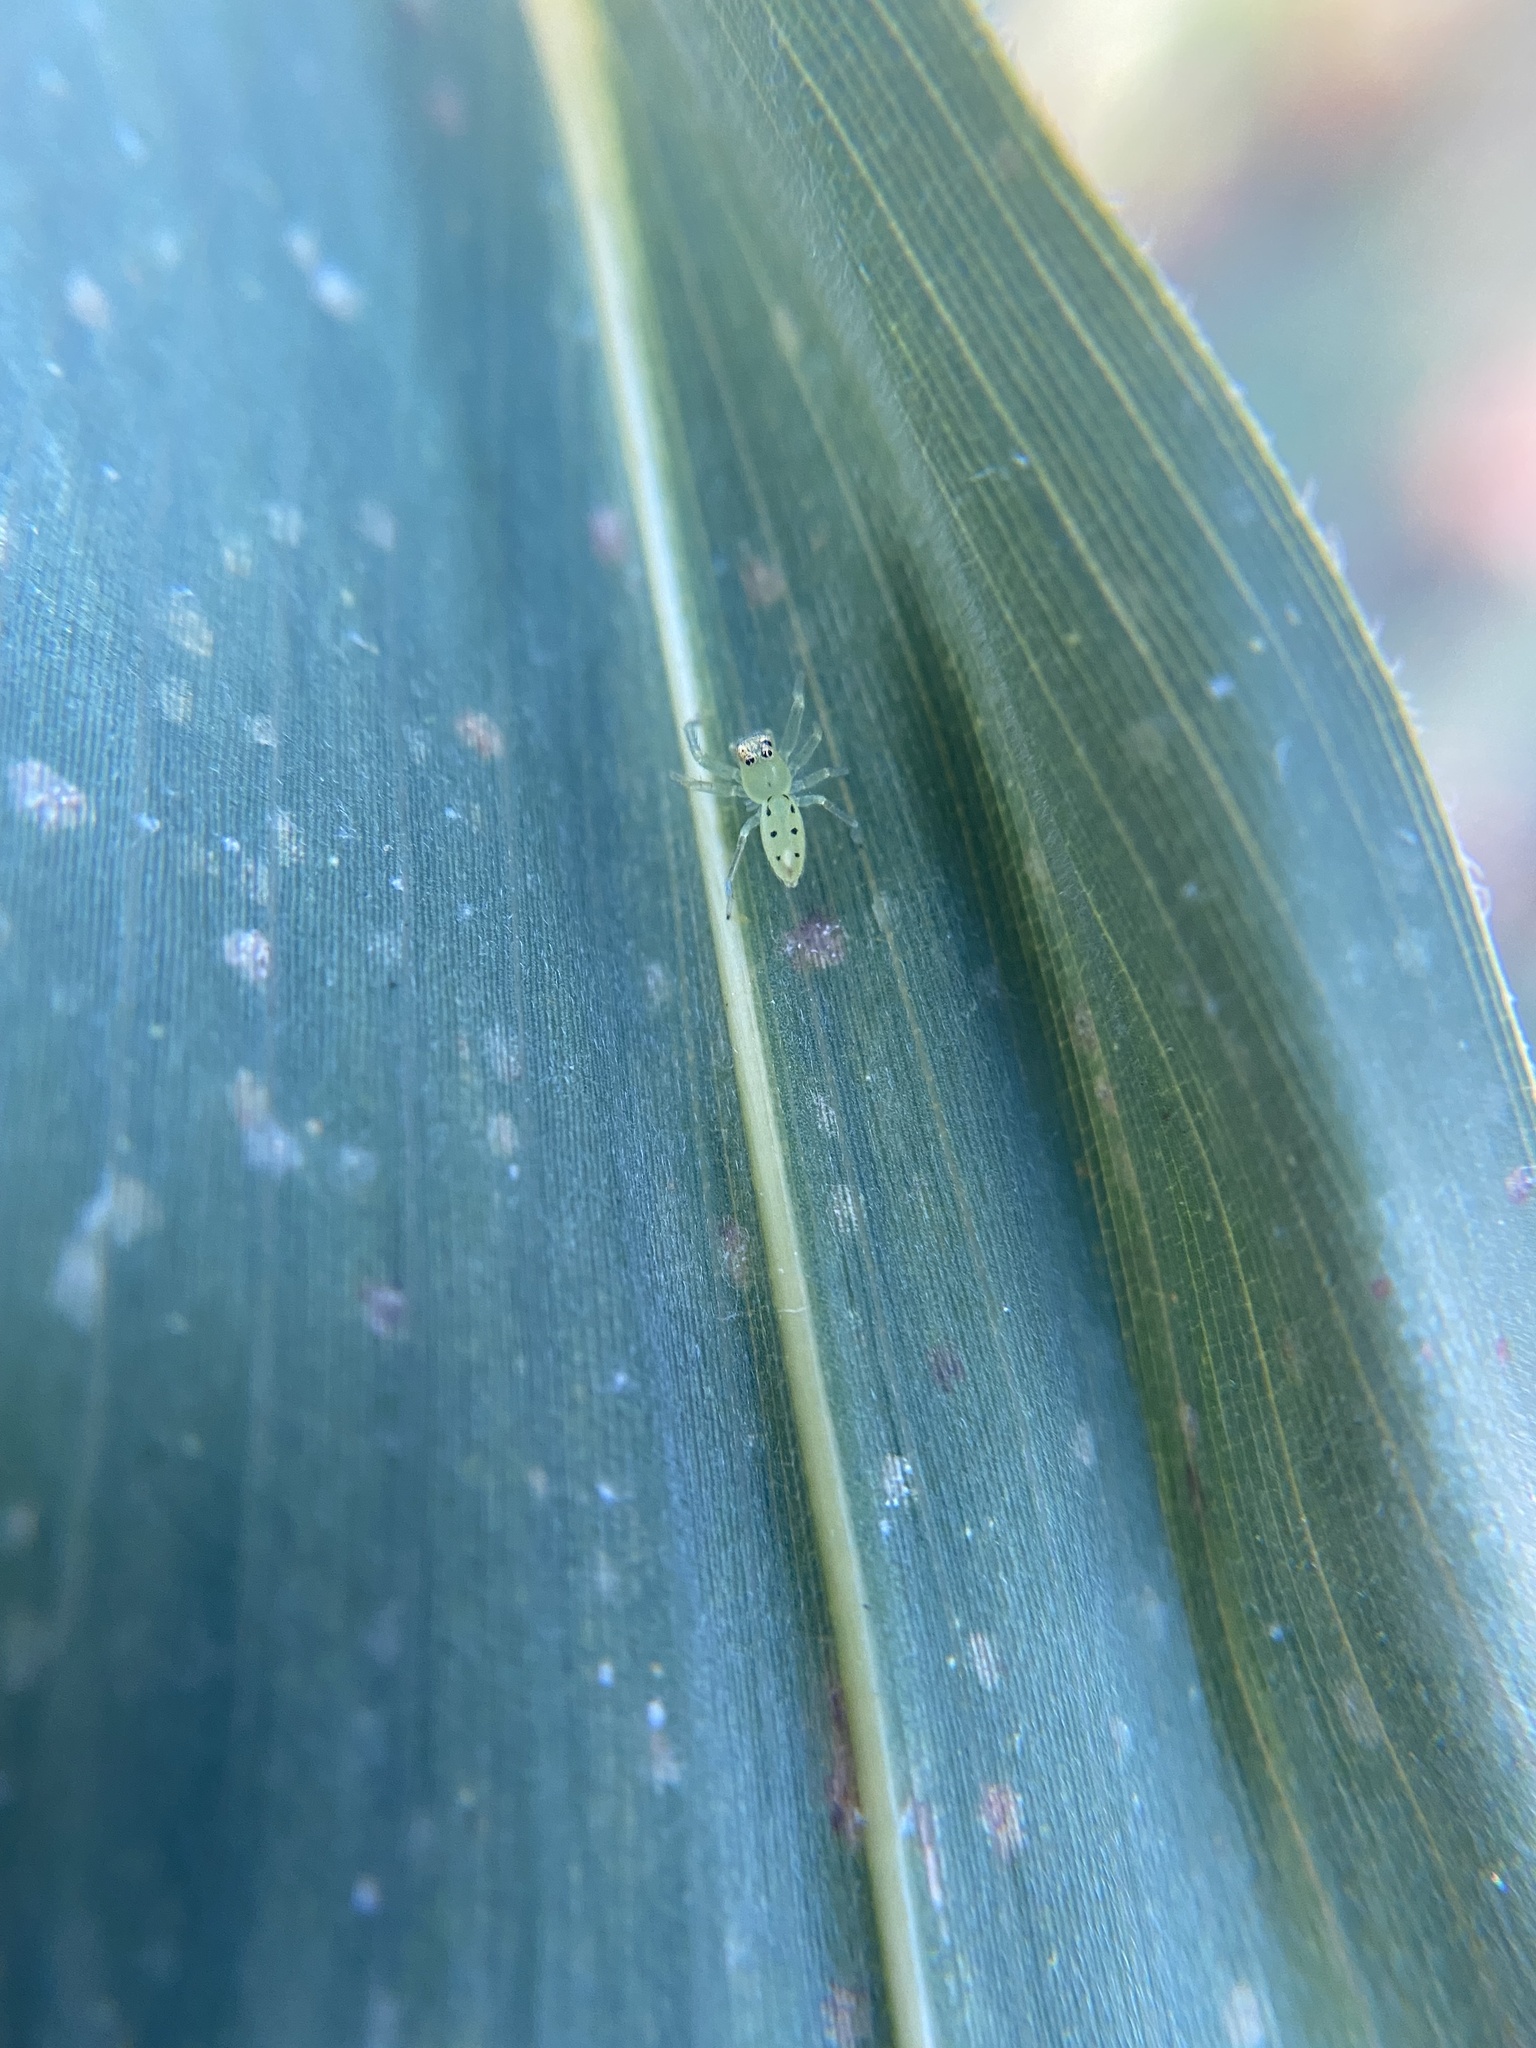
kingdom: Animalia
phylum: Arthropoda
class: Arachnida
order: Araneae
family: Salticidae
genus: Lyssomanes
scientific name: Lyssomanes viridis
